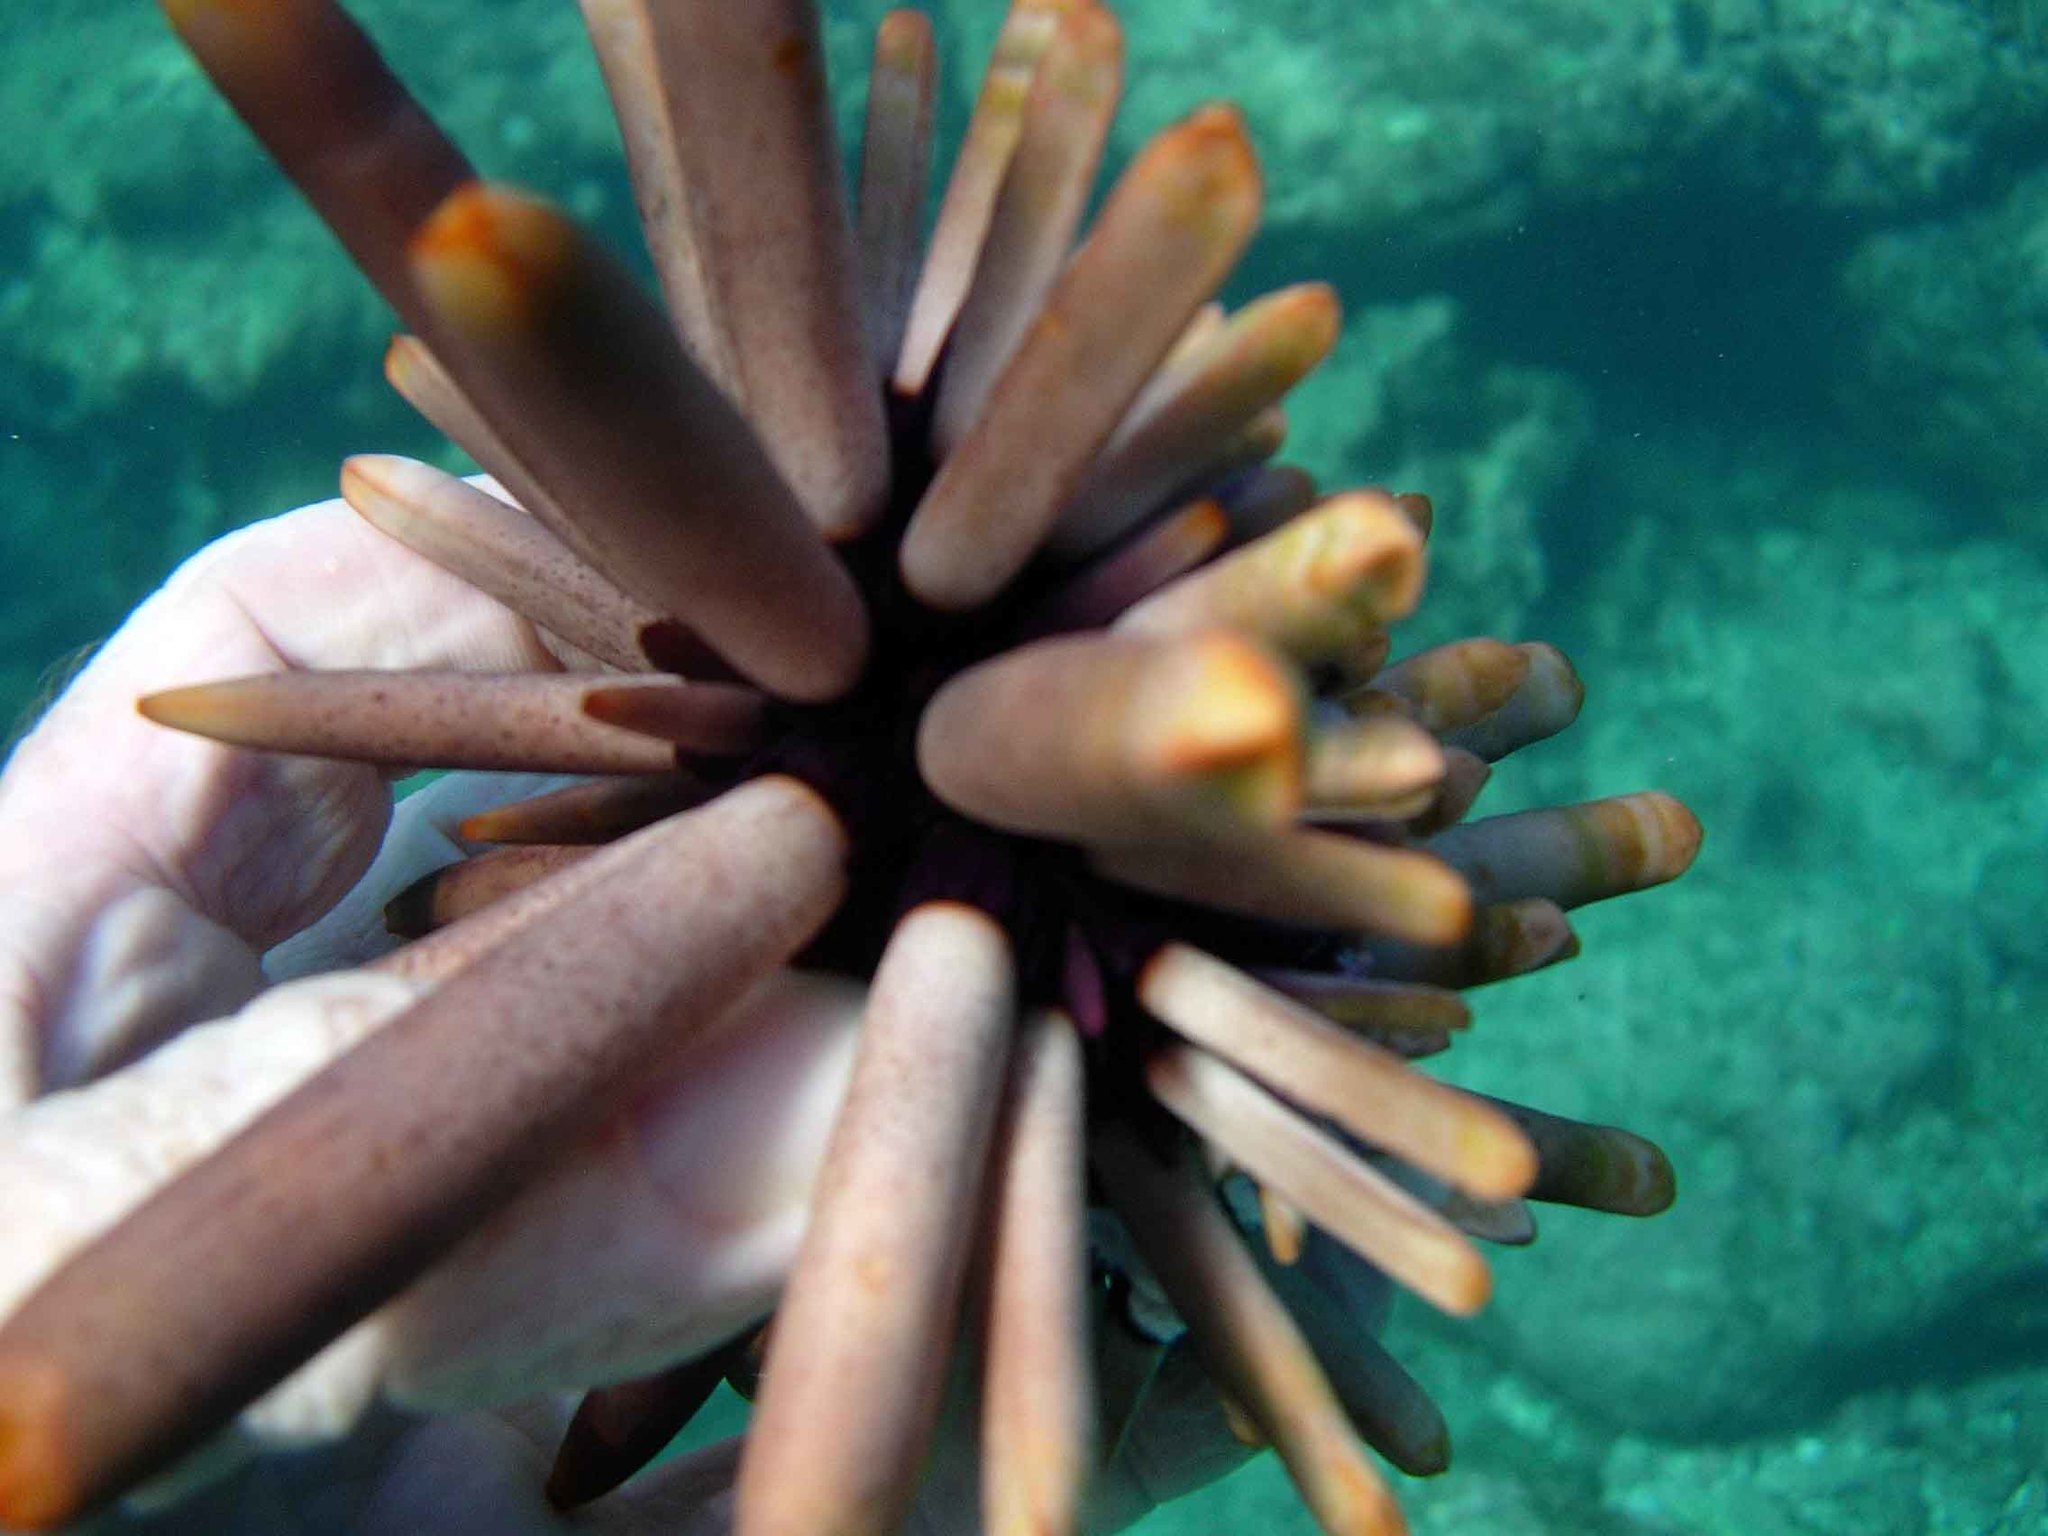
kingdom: Animalia
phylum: Echinodermata
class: Echinoidea
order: Camarodonta
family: Echinometridae
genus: Heterocentrotus
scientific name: Heterocentrotus mamillatus
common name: Slate pencil urchin
